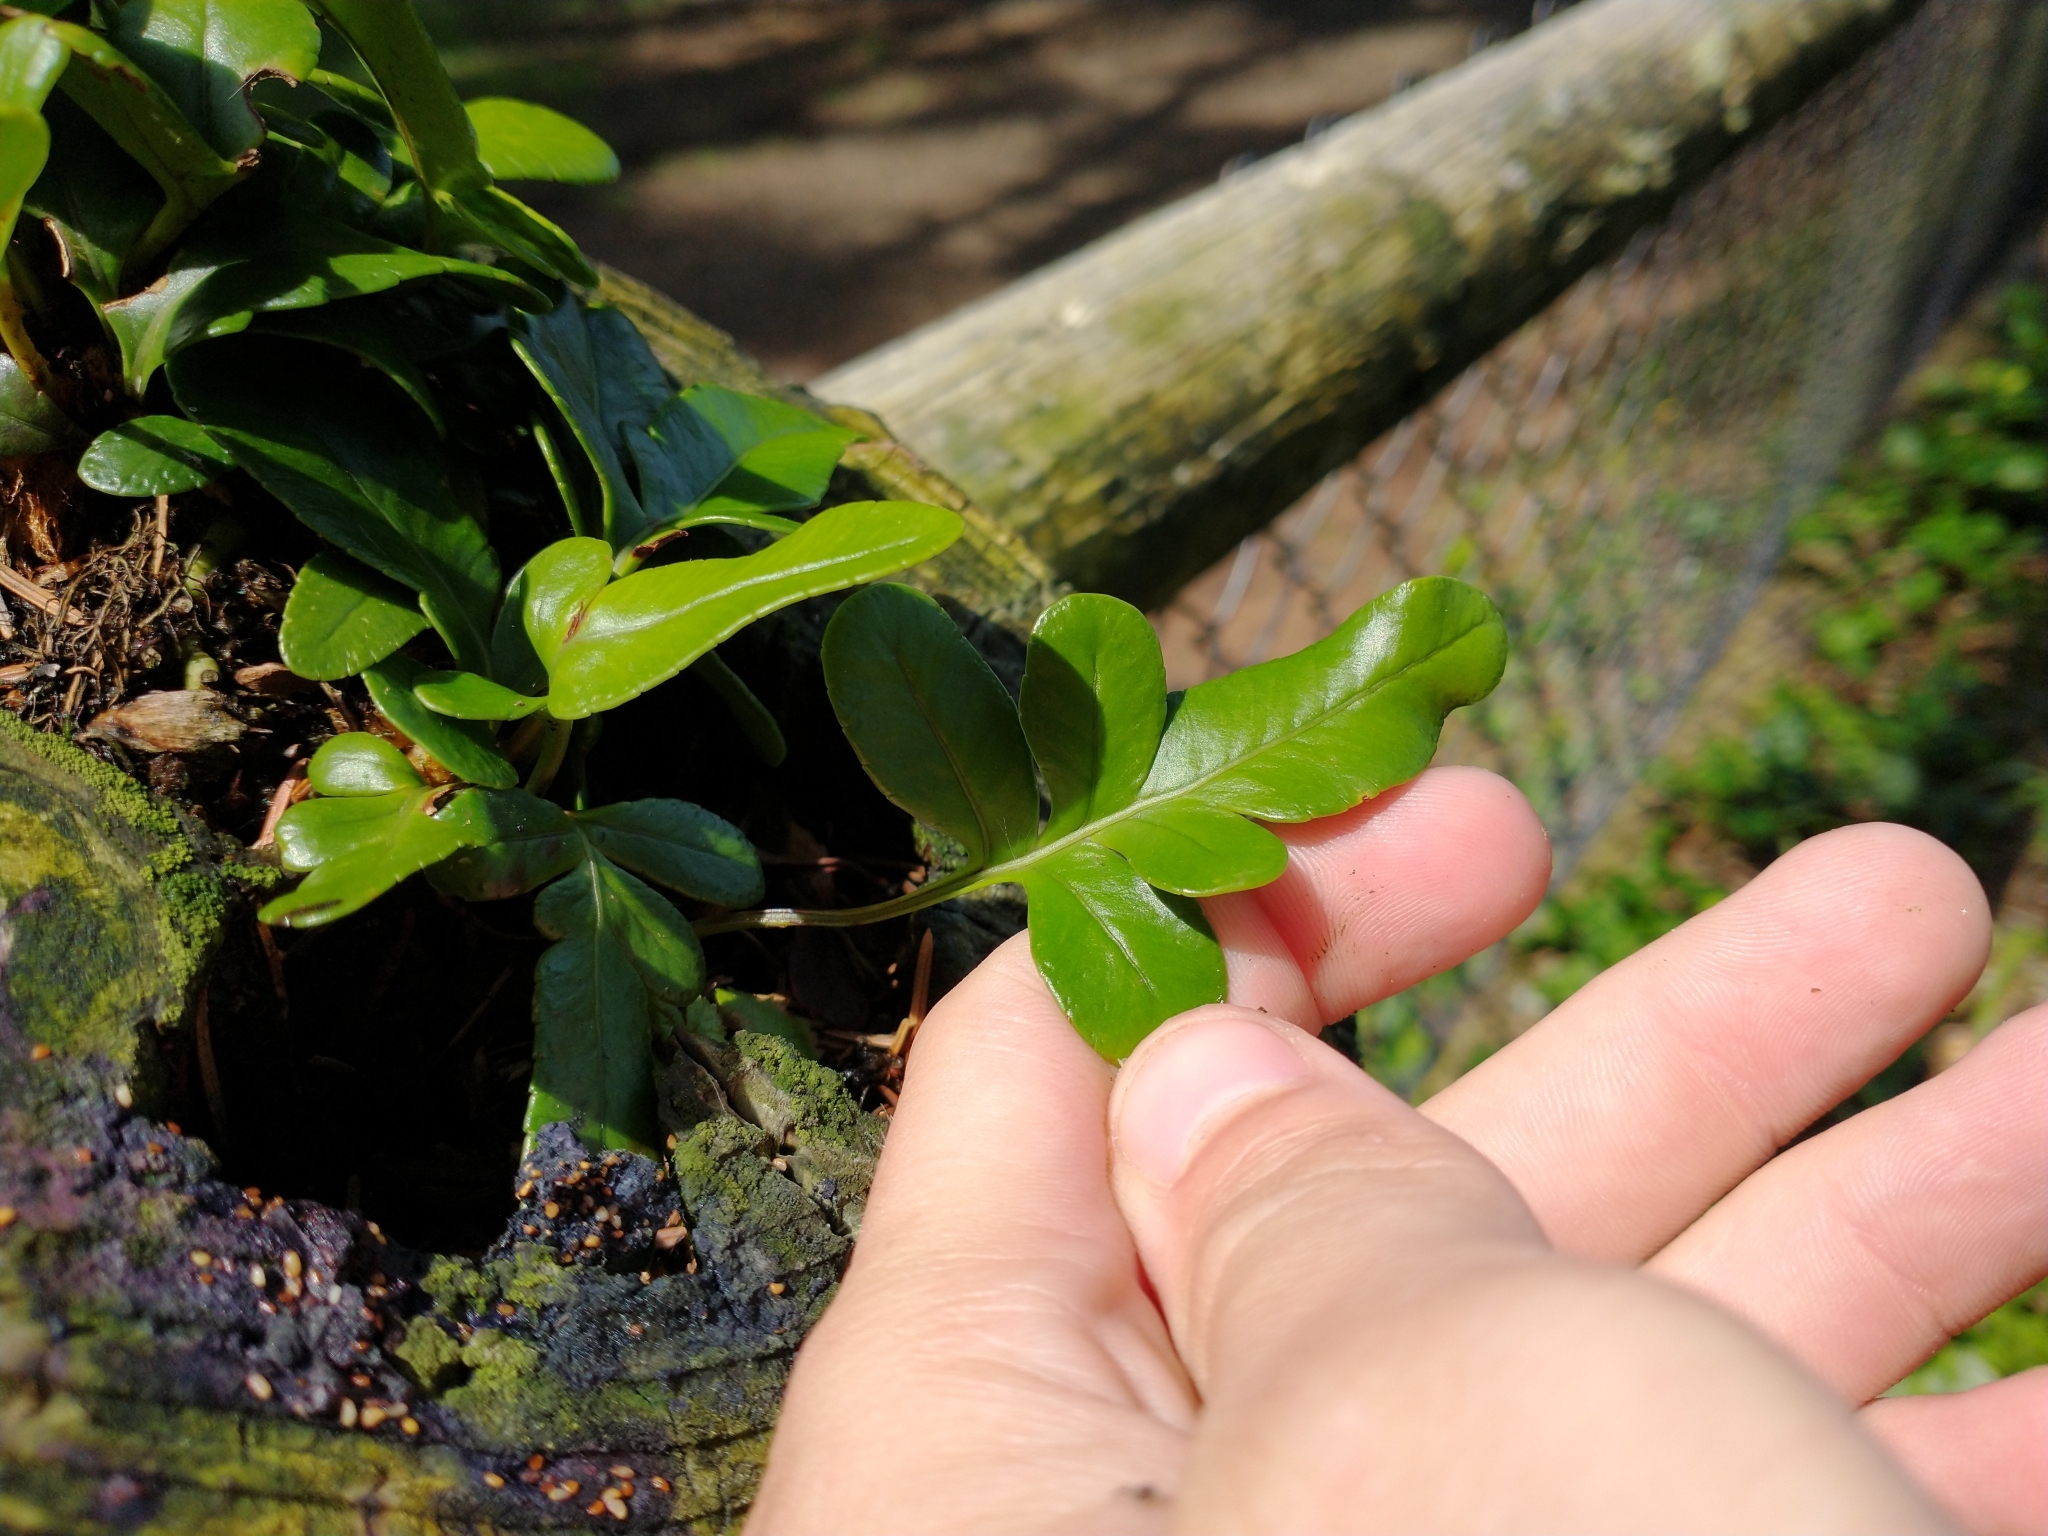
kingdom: Plantae
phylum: Tracheophyta
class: Polypodiopsida
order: Polypodiales
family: Polypodiaceae
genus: Polypodium
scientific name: Polypodium scouleri
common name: Scouler's polypody
